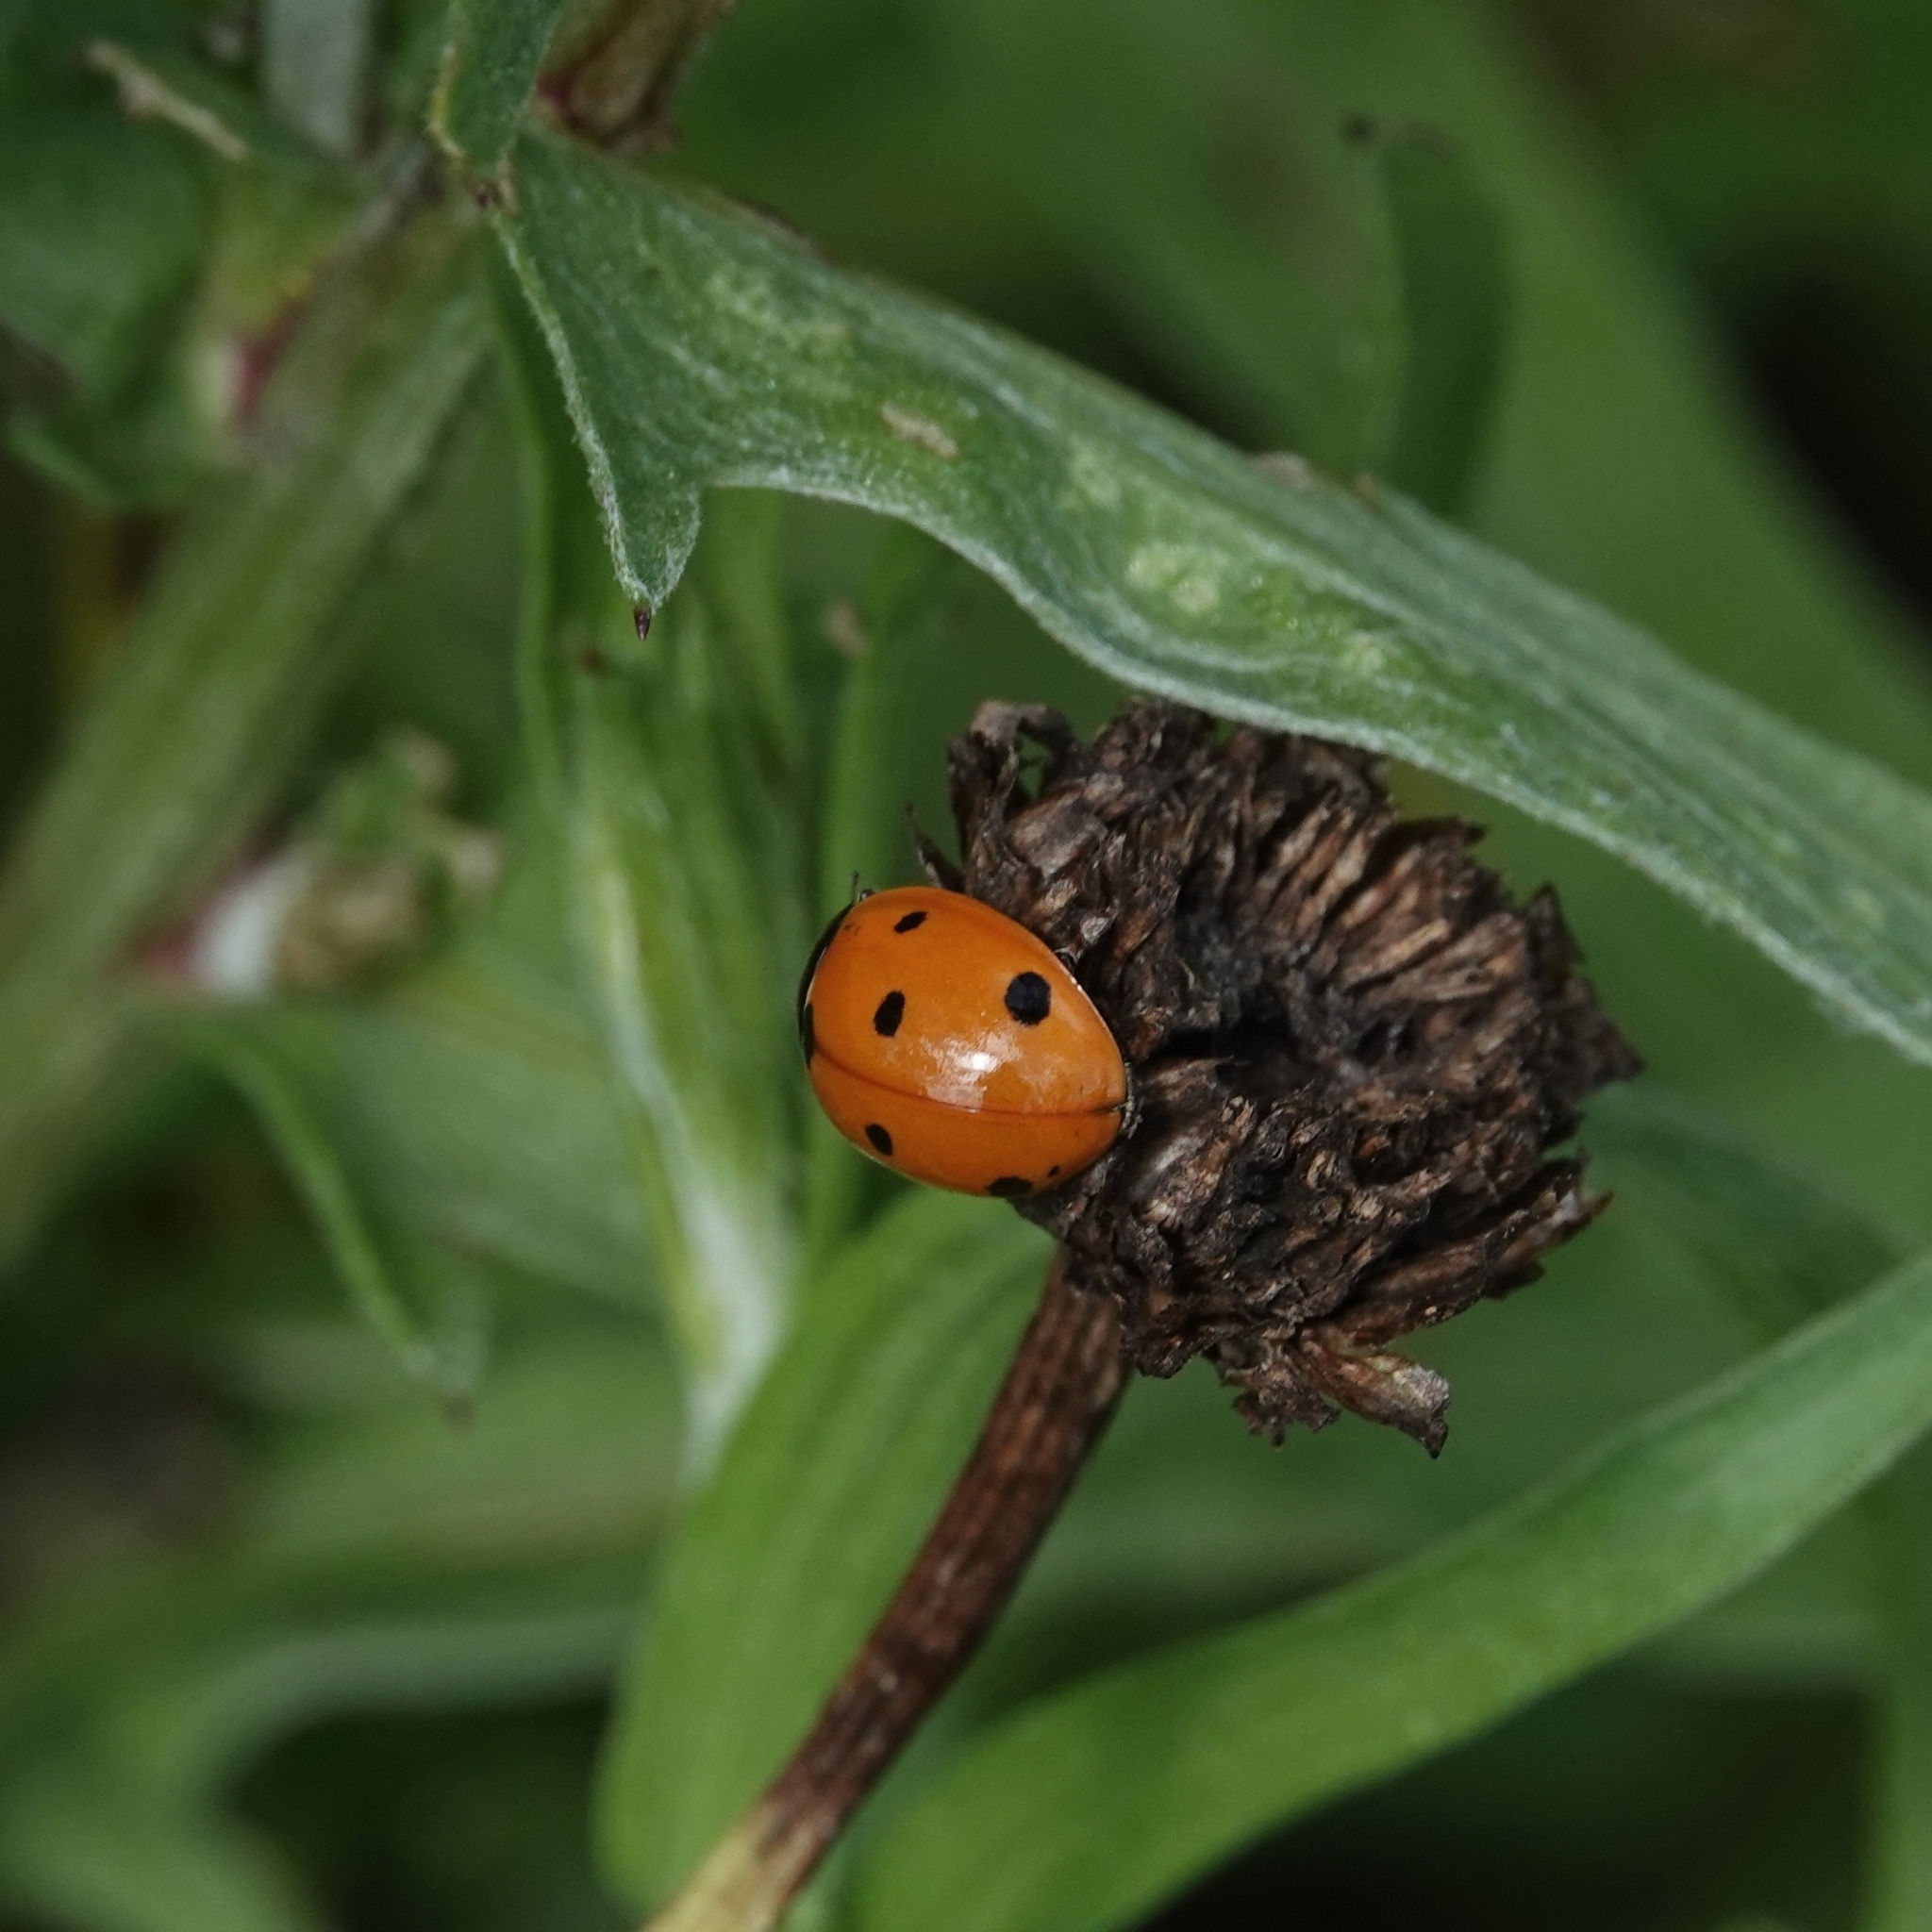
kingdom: Animalia
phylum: Arthropoda
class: Insecta
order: Coleoptera
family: Coccinellidae
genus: Coccinella
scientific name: Coccinella septempunctata
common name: Sevenspotted lady beetle
